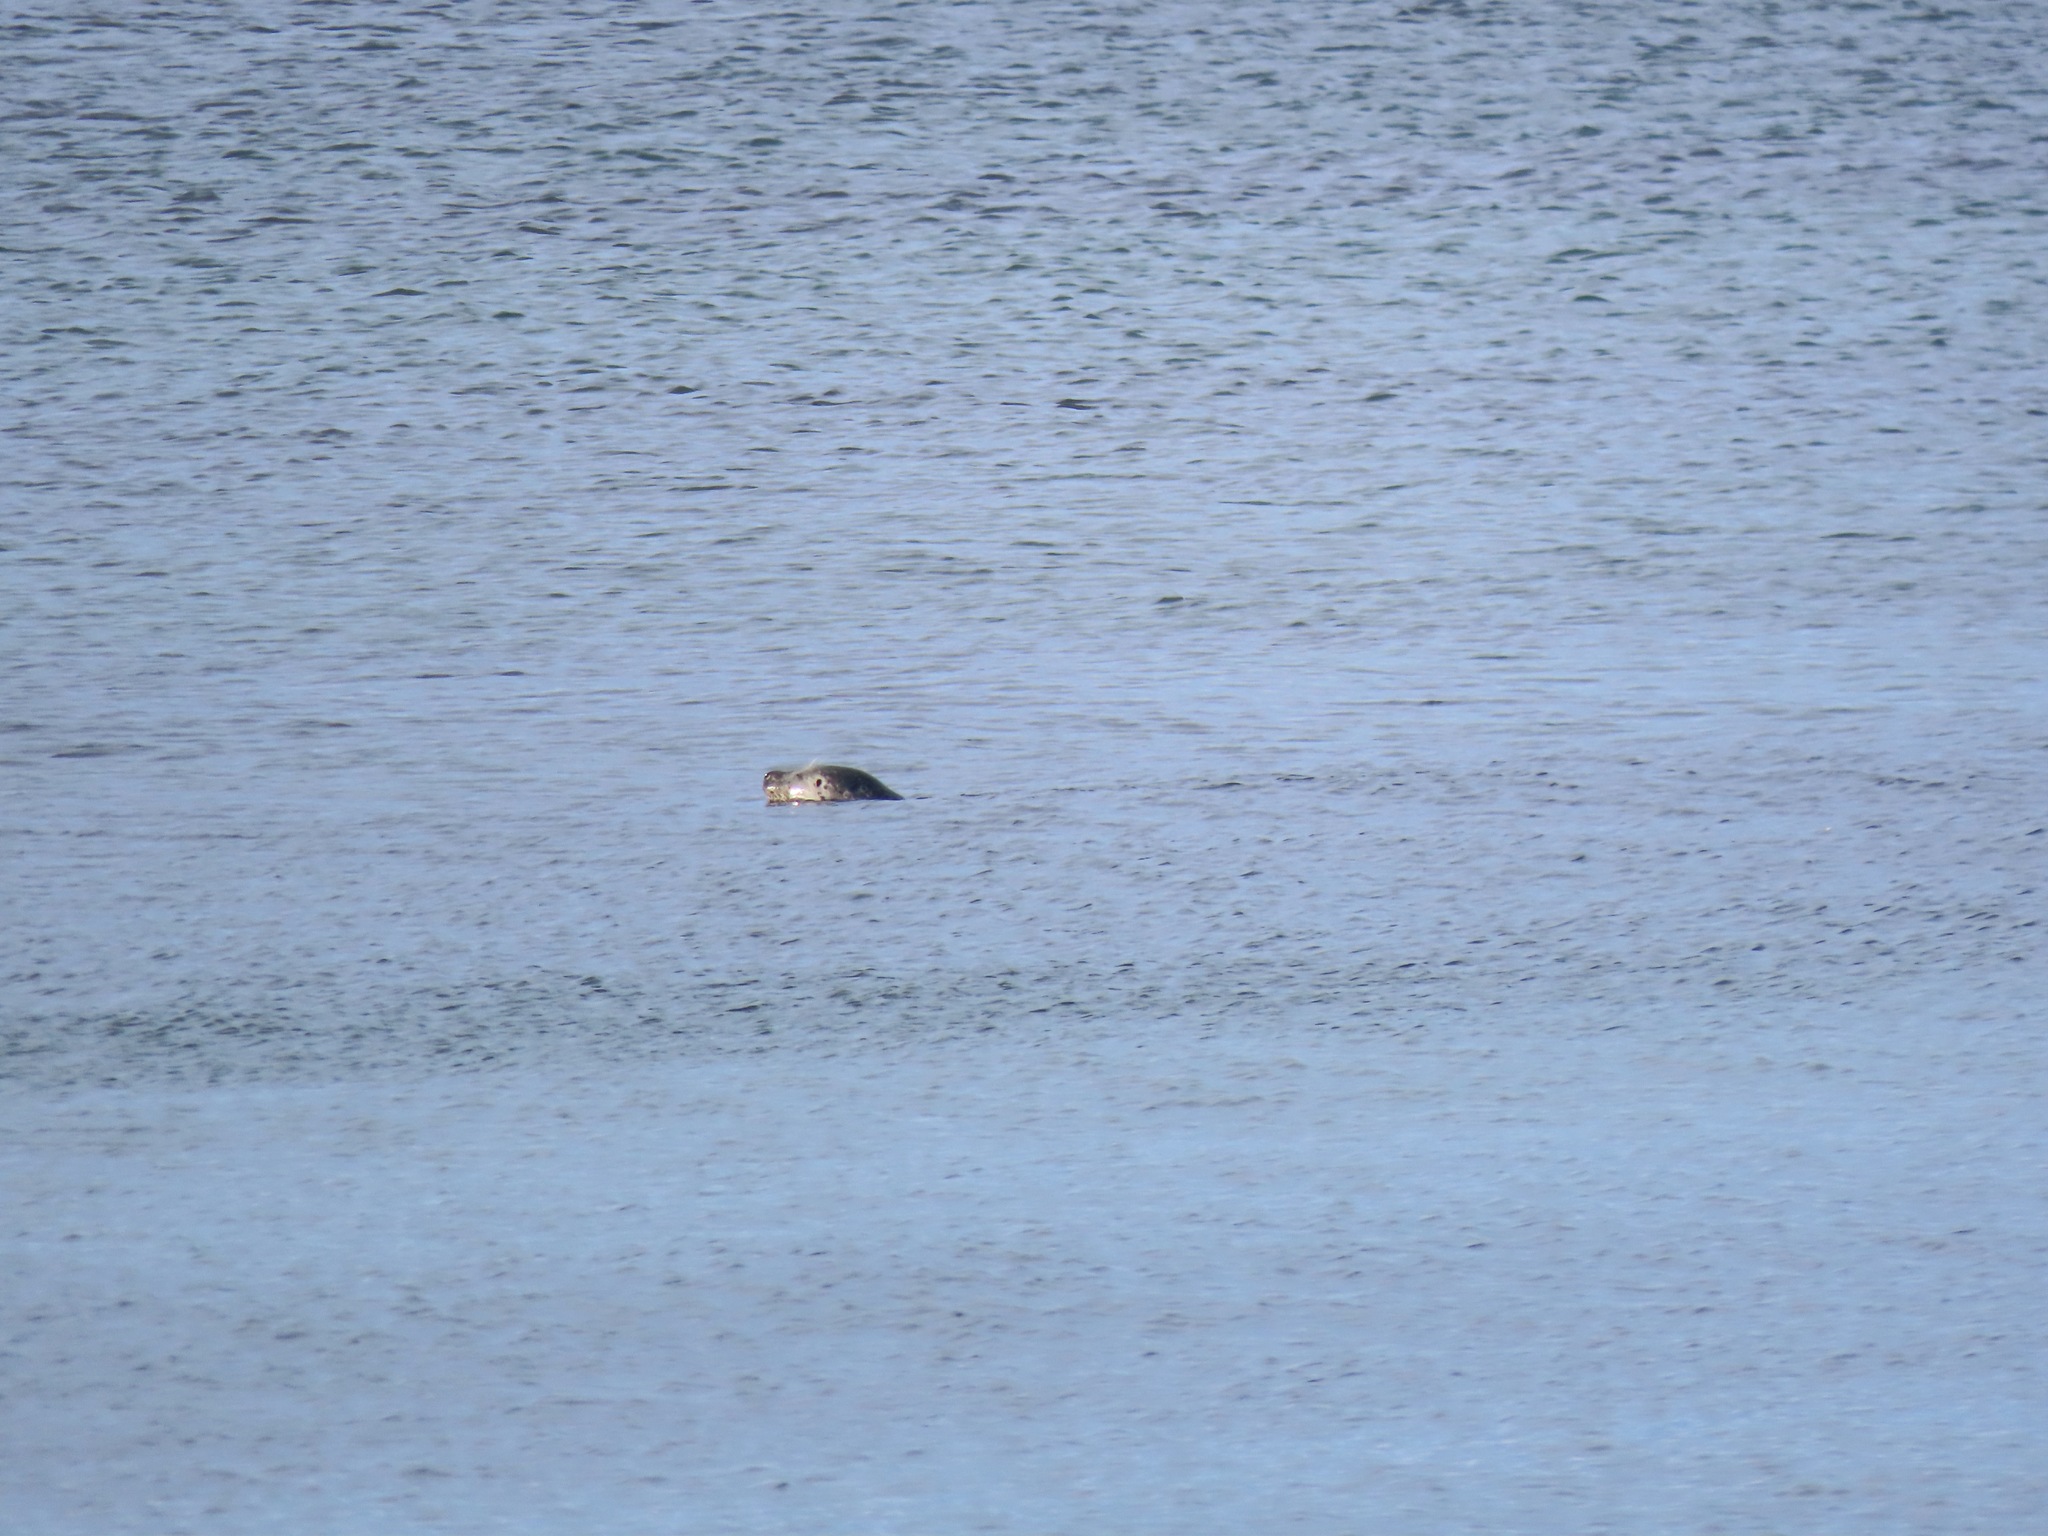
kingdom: Animalia
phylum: Chordata
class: Mammalia
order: Carnivora
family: Phocidae
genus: Phoca
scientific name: Phoca vitulina
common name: Harbor seal
